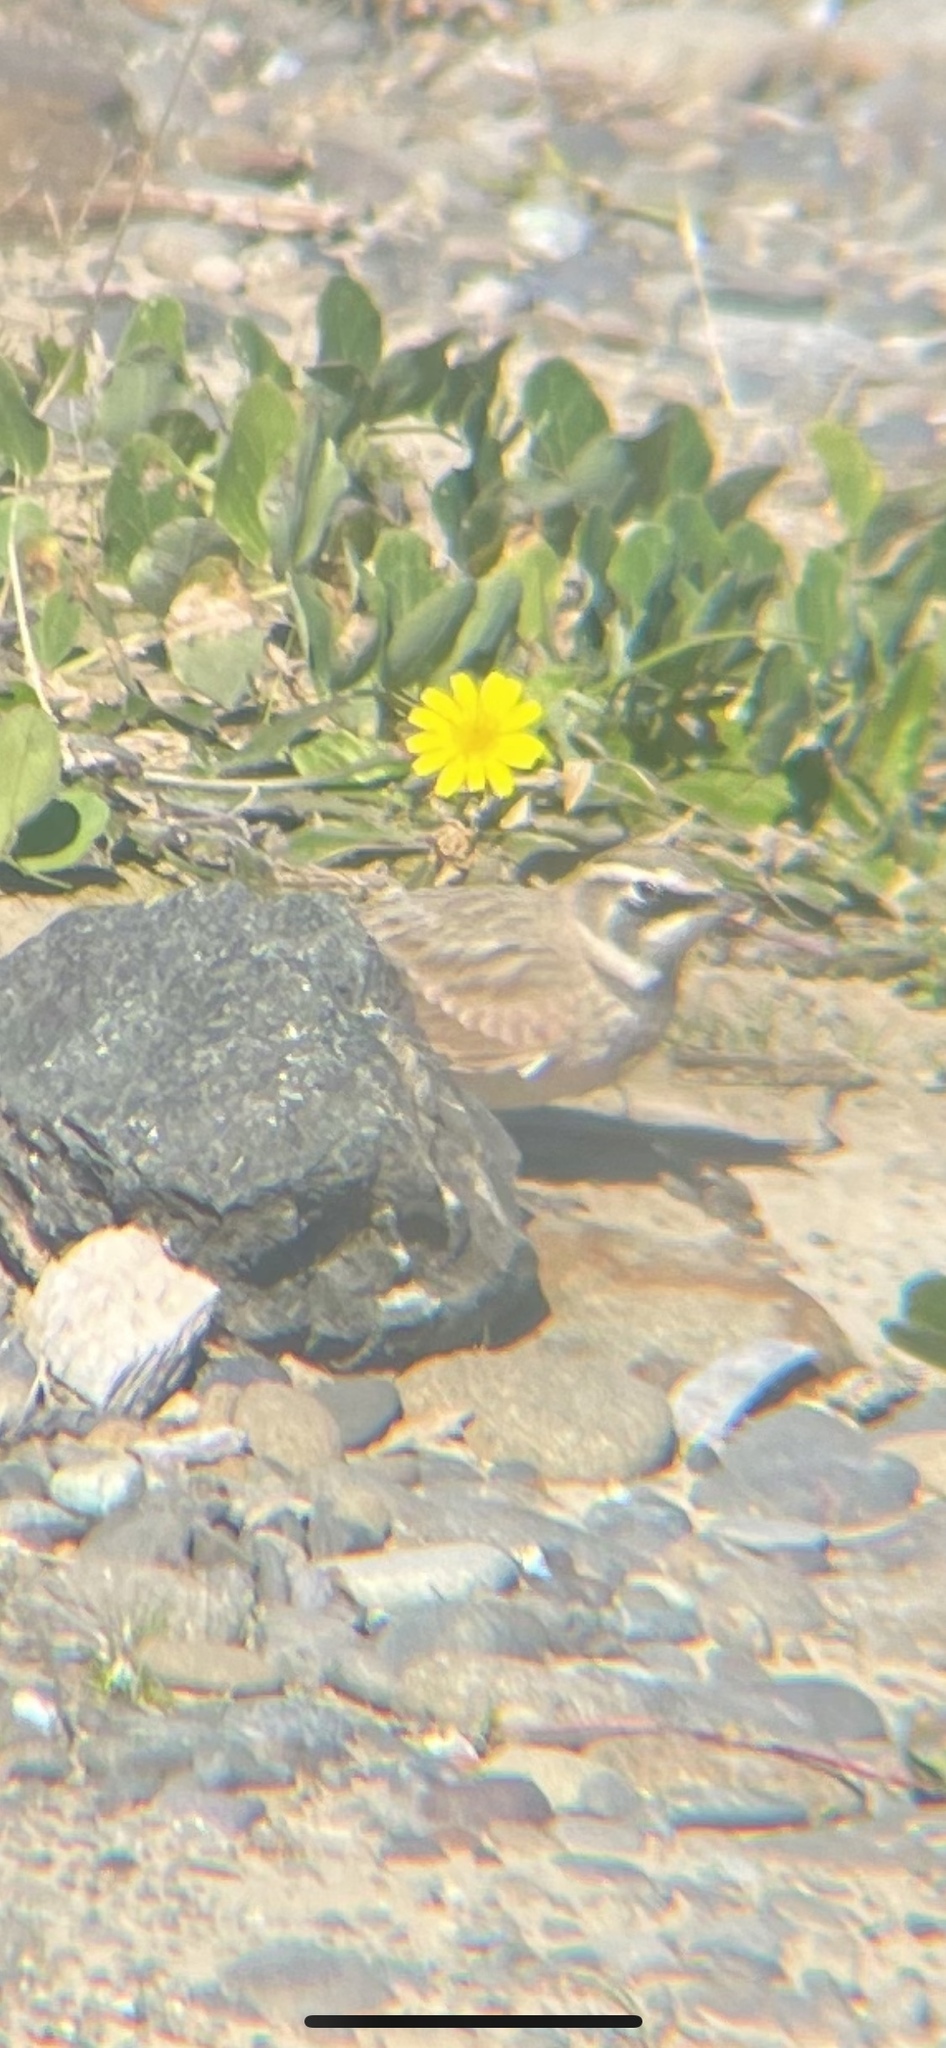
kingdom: Animalia
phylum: Chordata
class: Aves
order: Passeriformes
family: Alaudidae
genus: Eremophila
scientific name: Eremophila alpestris
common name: Horned lark
